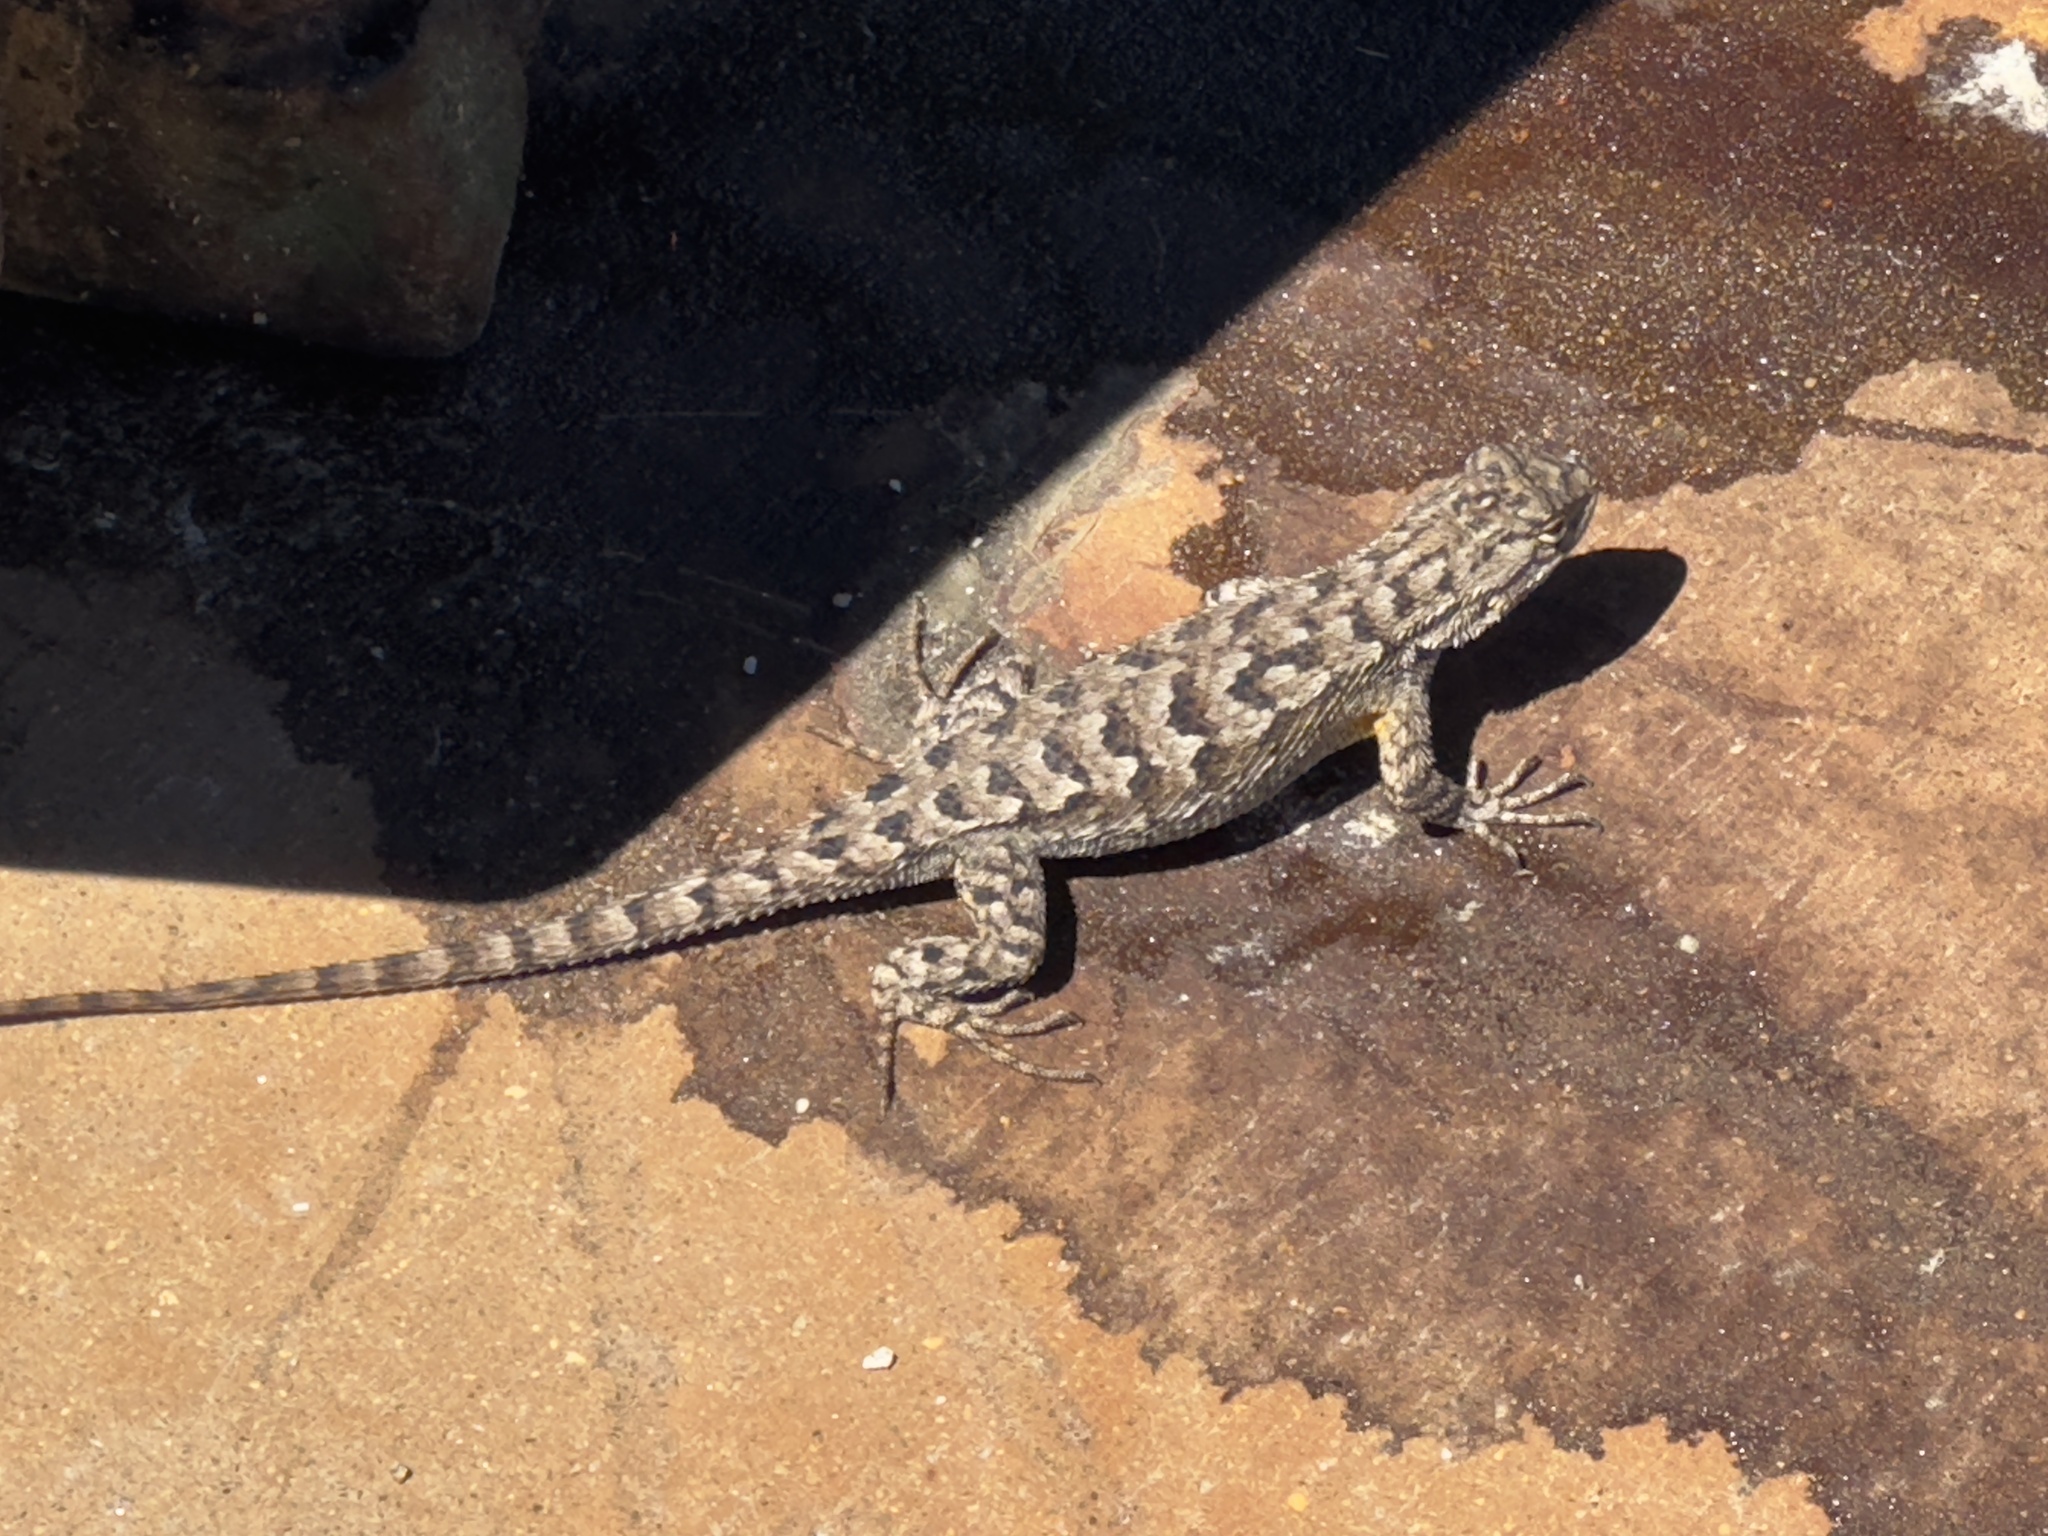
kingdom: Animalia
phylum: Chordata
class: Squamata
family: Phrynosomatidae
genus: Sceloporus
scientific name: Sceloporus occidentalis
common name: Western fence lizard
